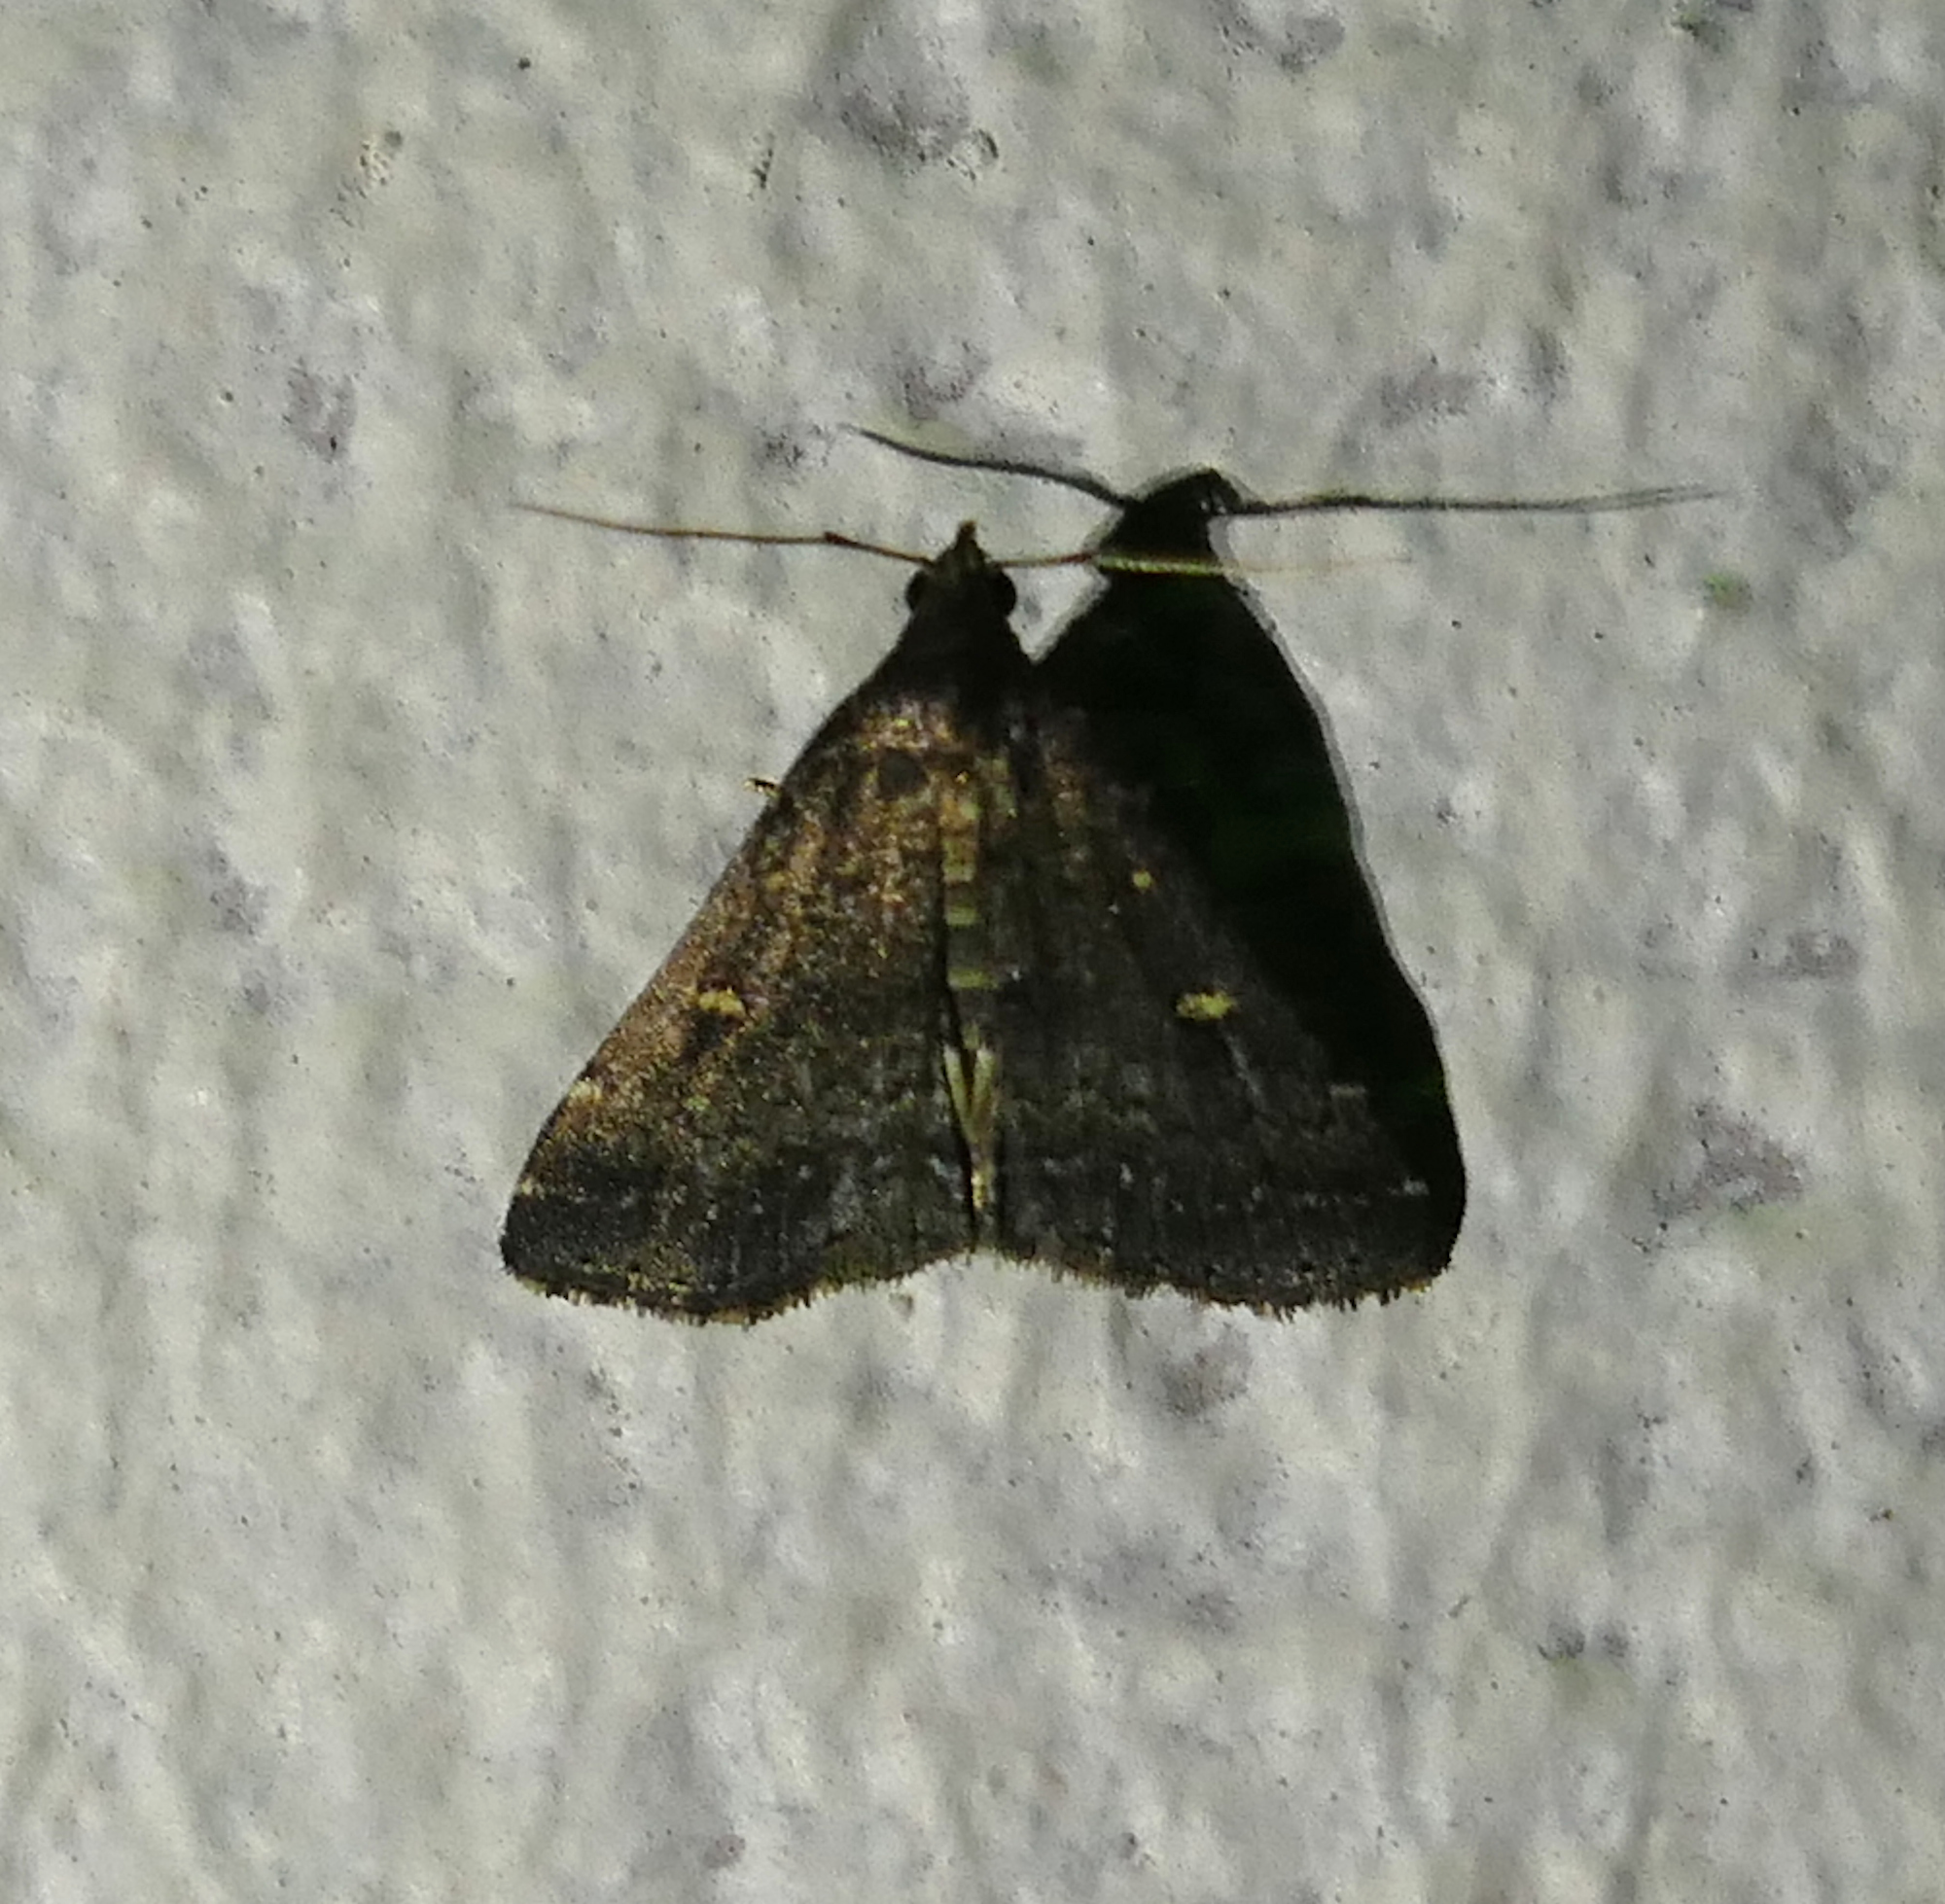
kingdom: Animalia
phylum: Arthropoda
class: Insecta
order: Lepidoptera
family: Erebidae
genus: Tetanolita
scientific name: Tetanolita mynesalis
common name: Smoky tetanolita moth
